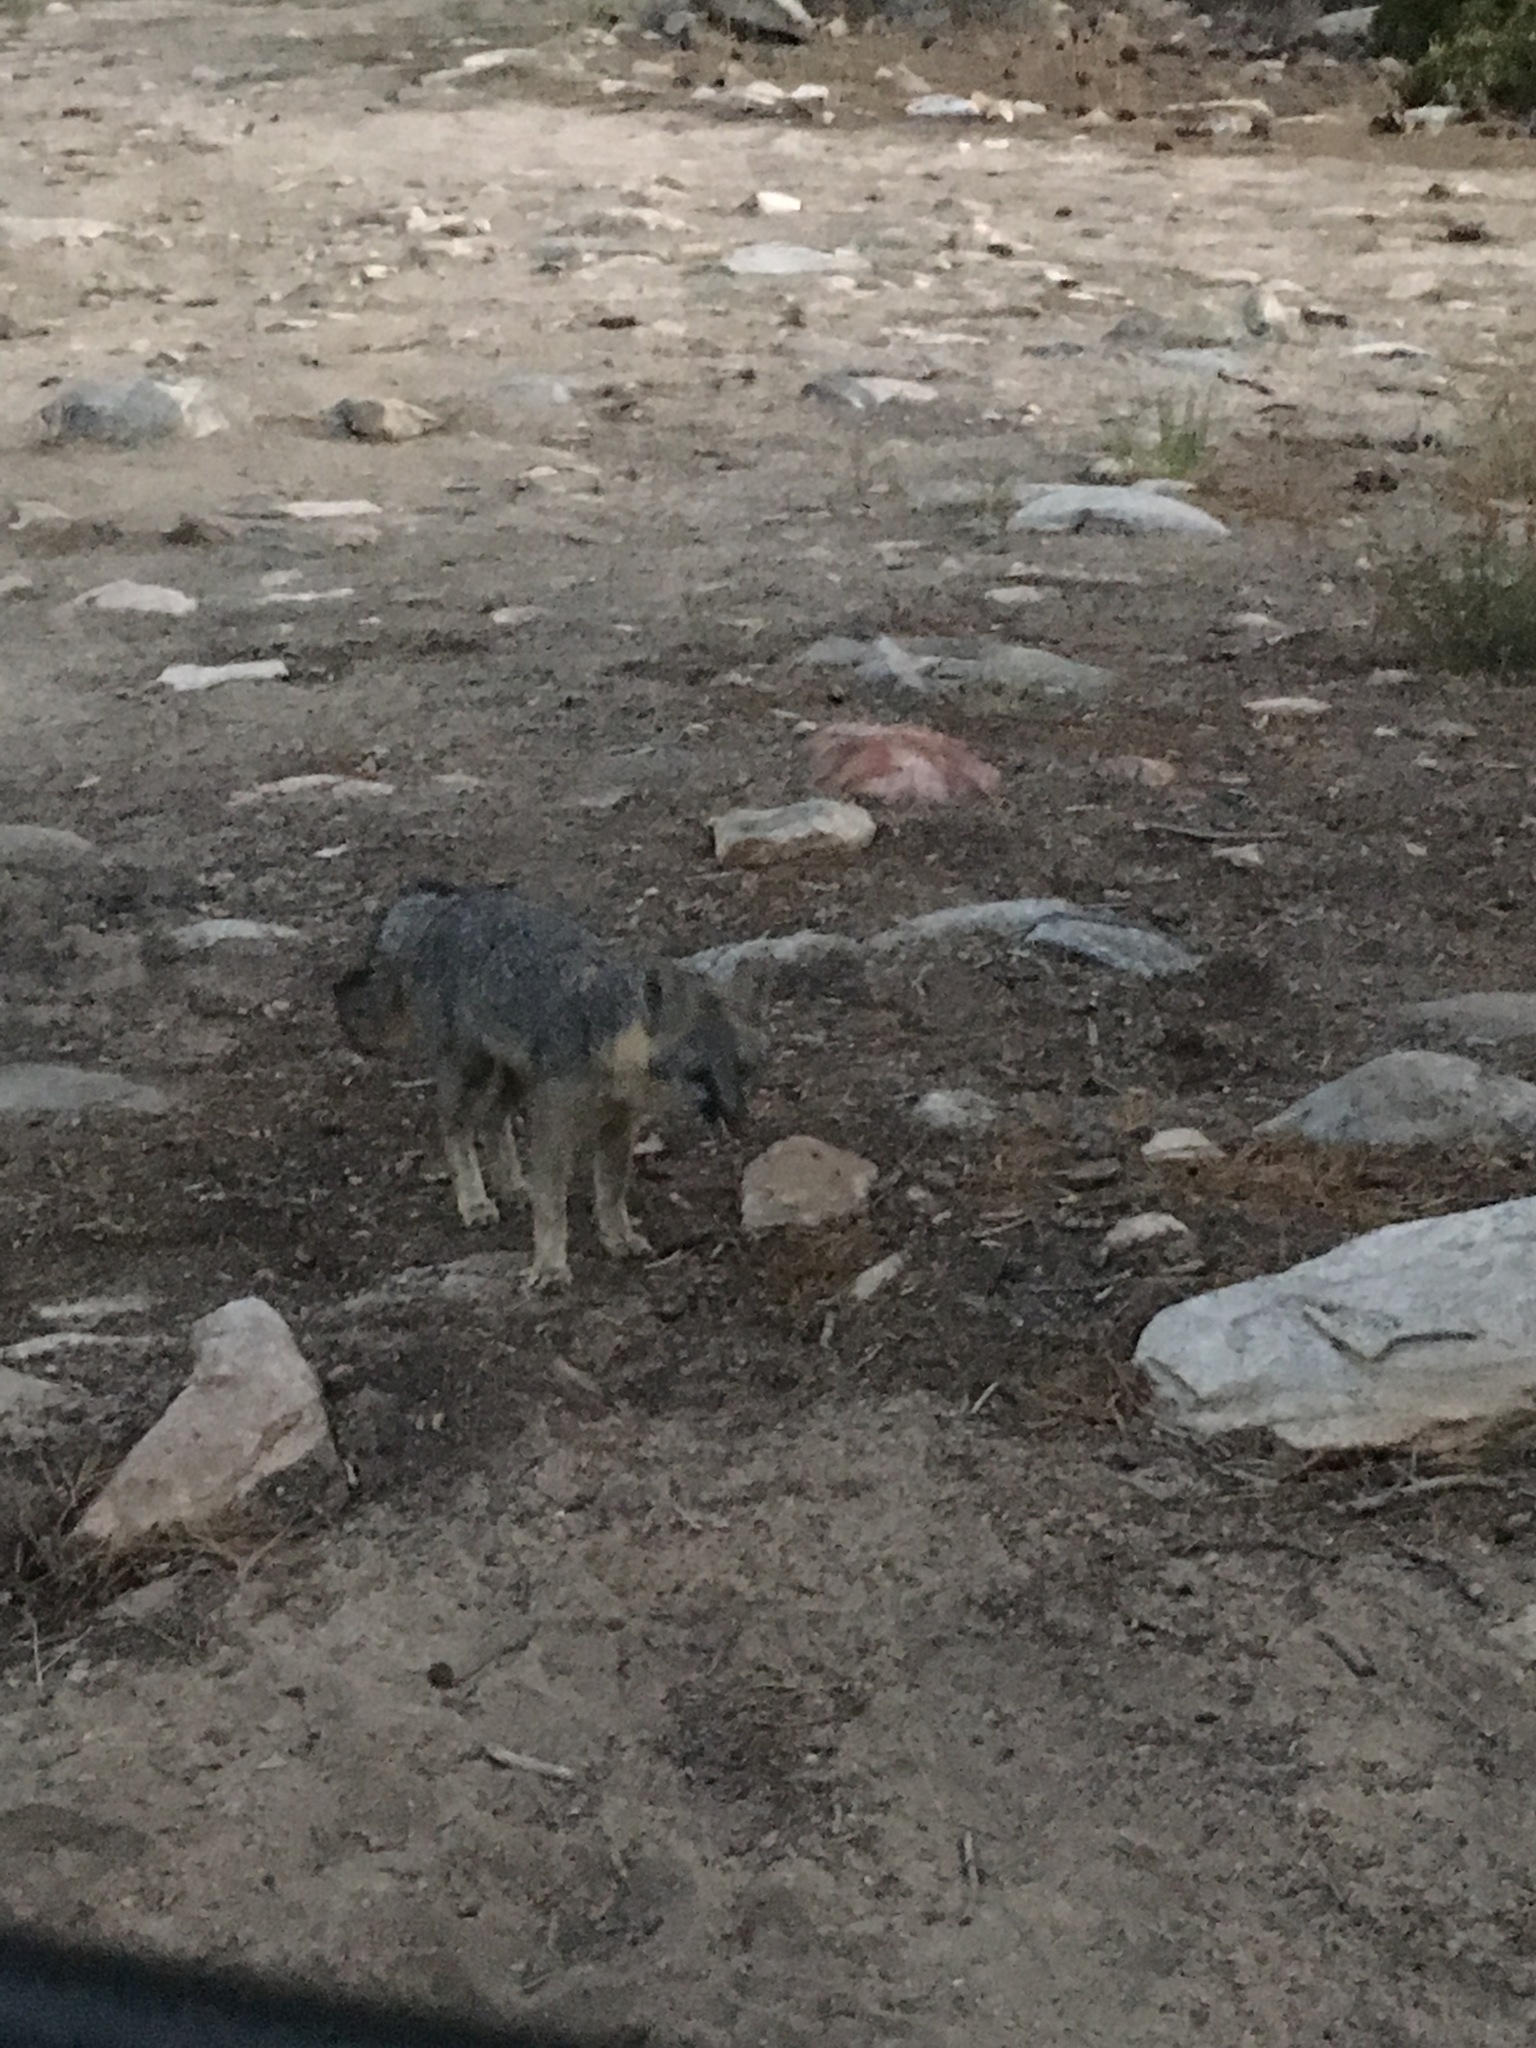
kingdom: Animalia
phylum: Chordata
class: Mammalia
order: Carnivora
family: Canidae
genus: Urocyon
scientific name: Urocyon cinereoargenteus
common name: Gray fox
